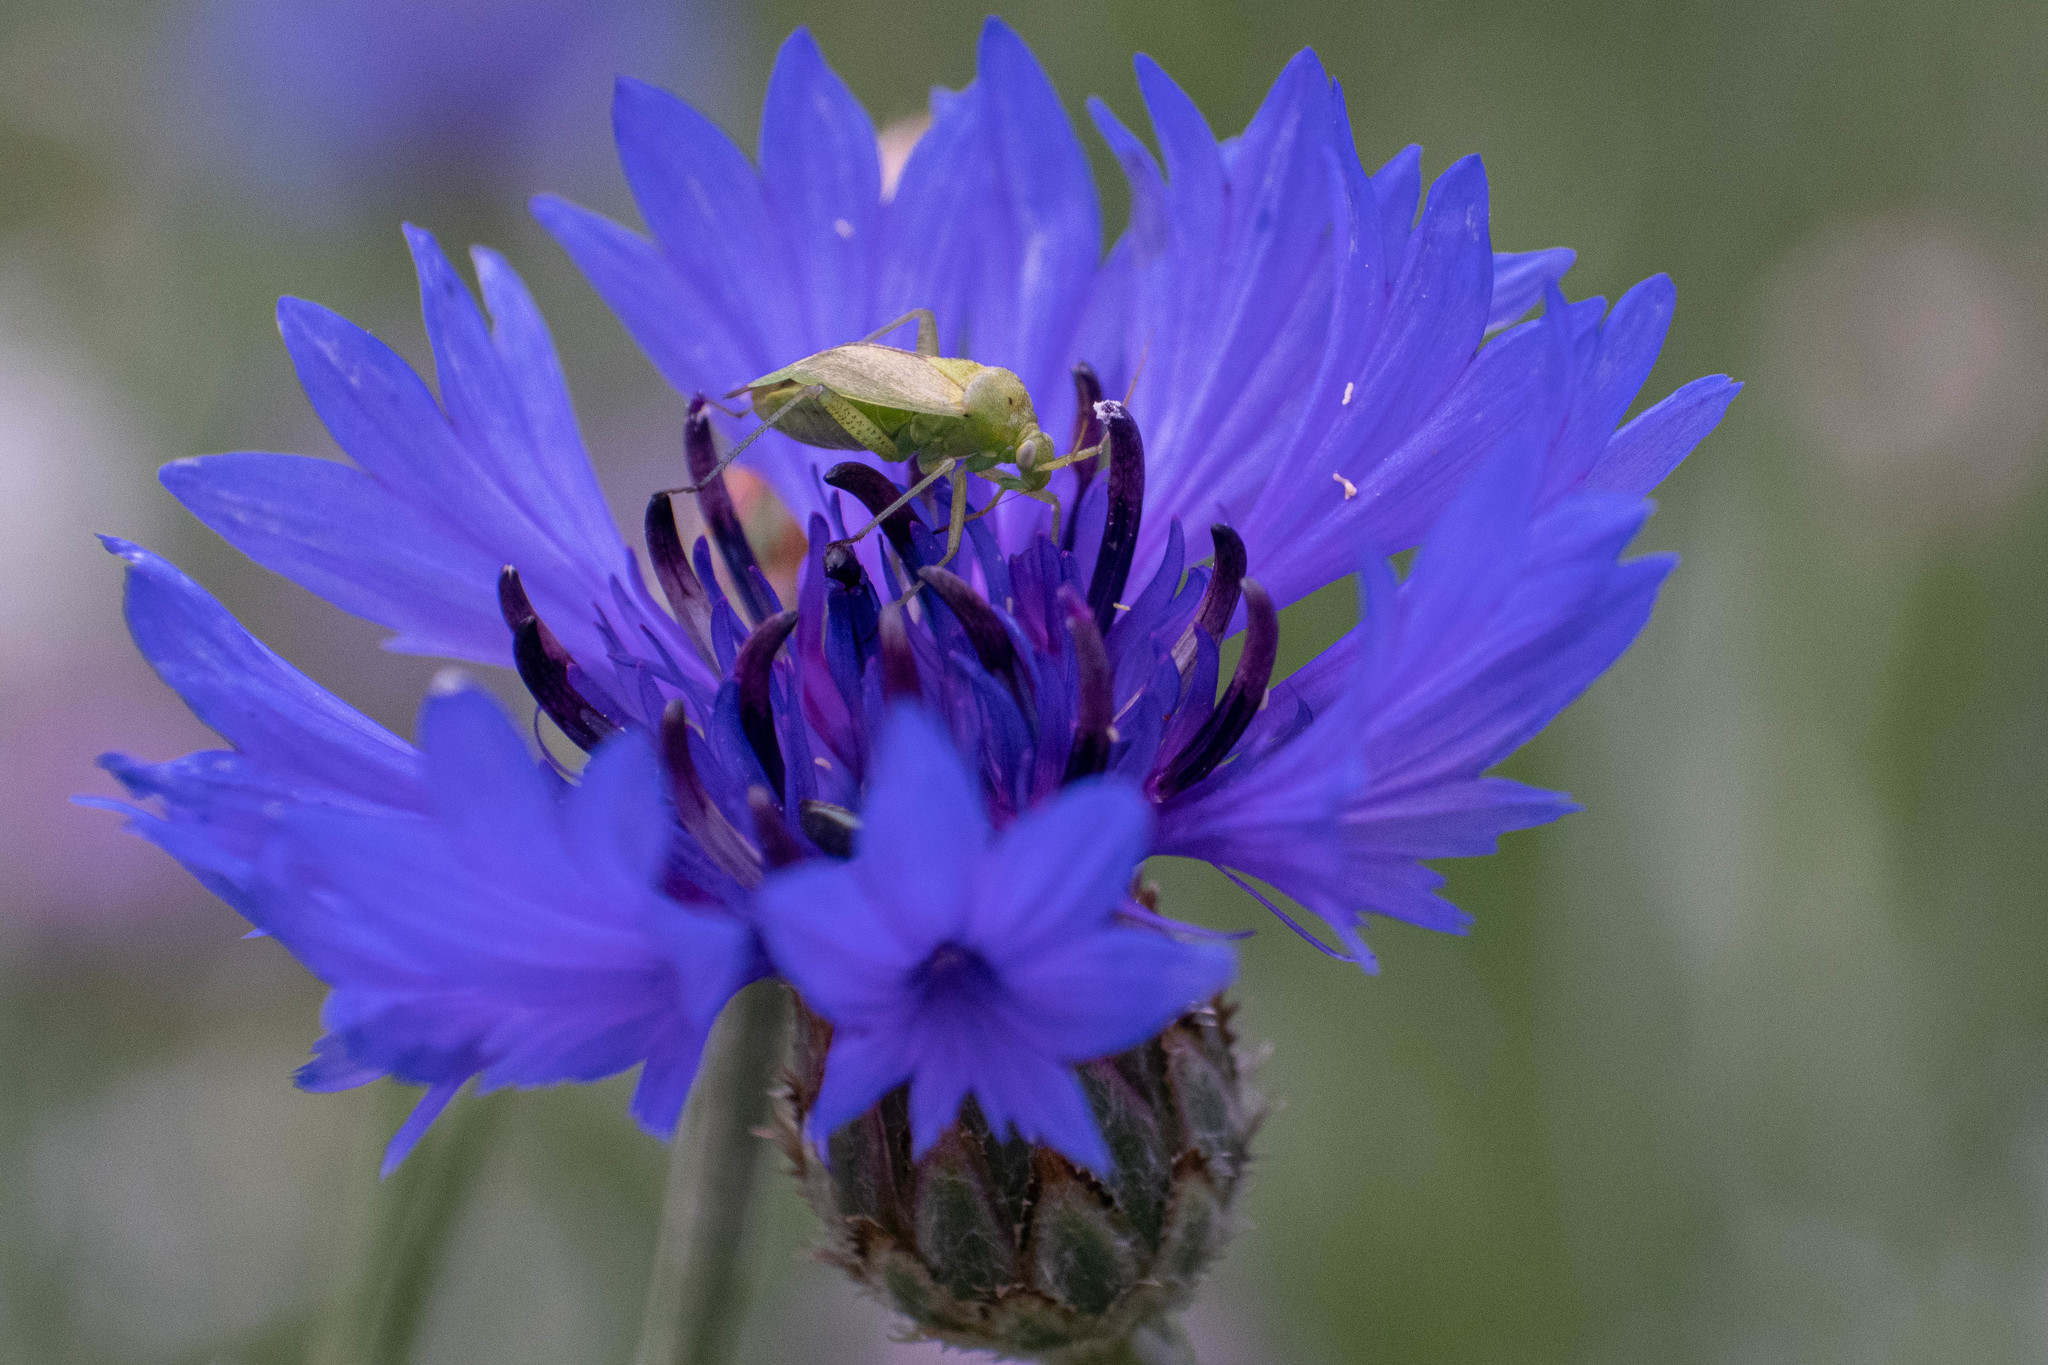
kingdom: Animalia
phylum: Arthropoda
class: Insecta
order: Hemiptera
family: Miridae
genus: Closterotomus
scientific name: Closterotomus norvegicus
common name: Plant bug
